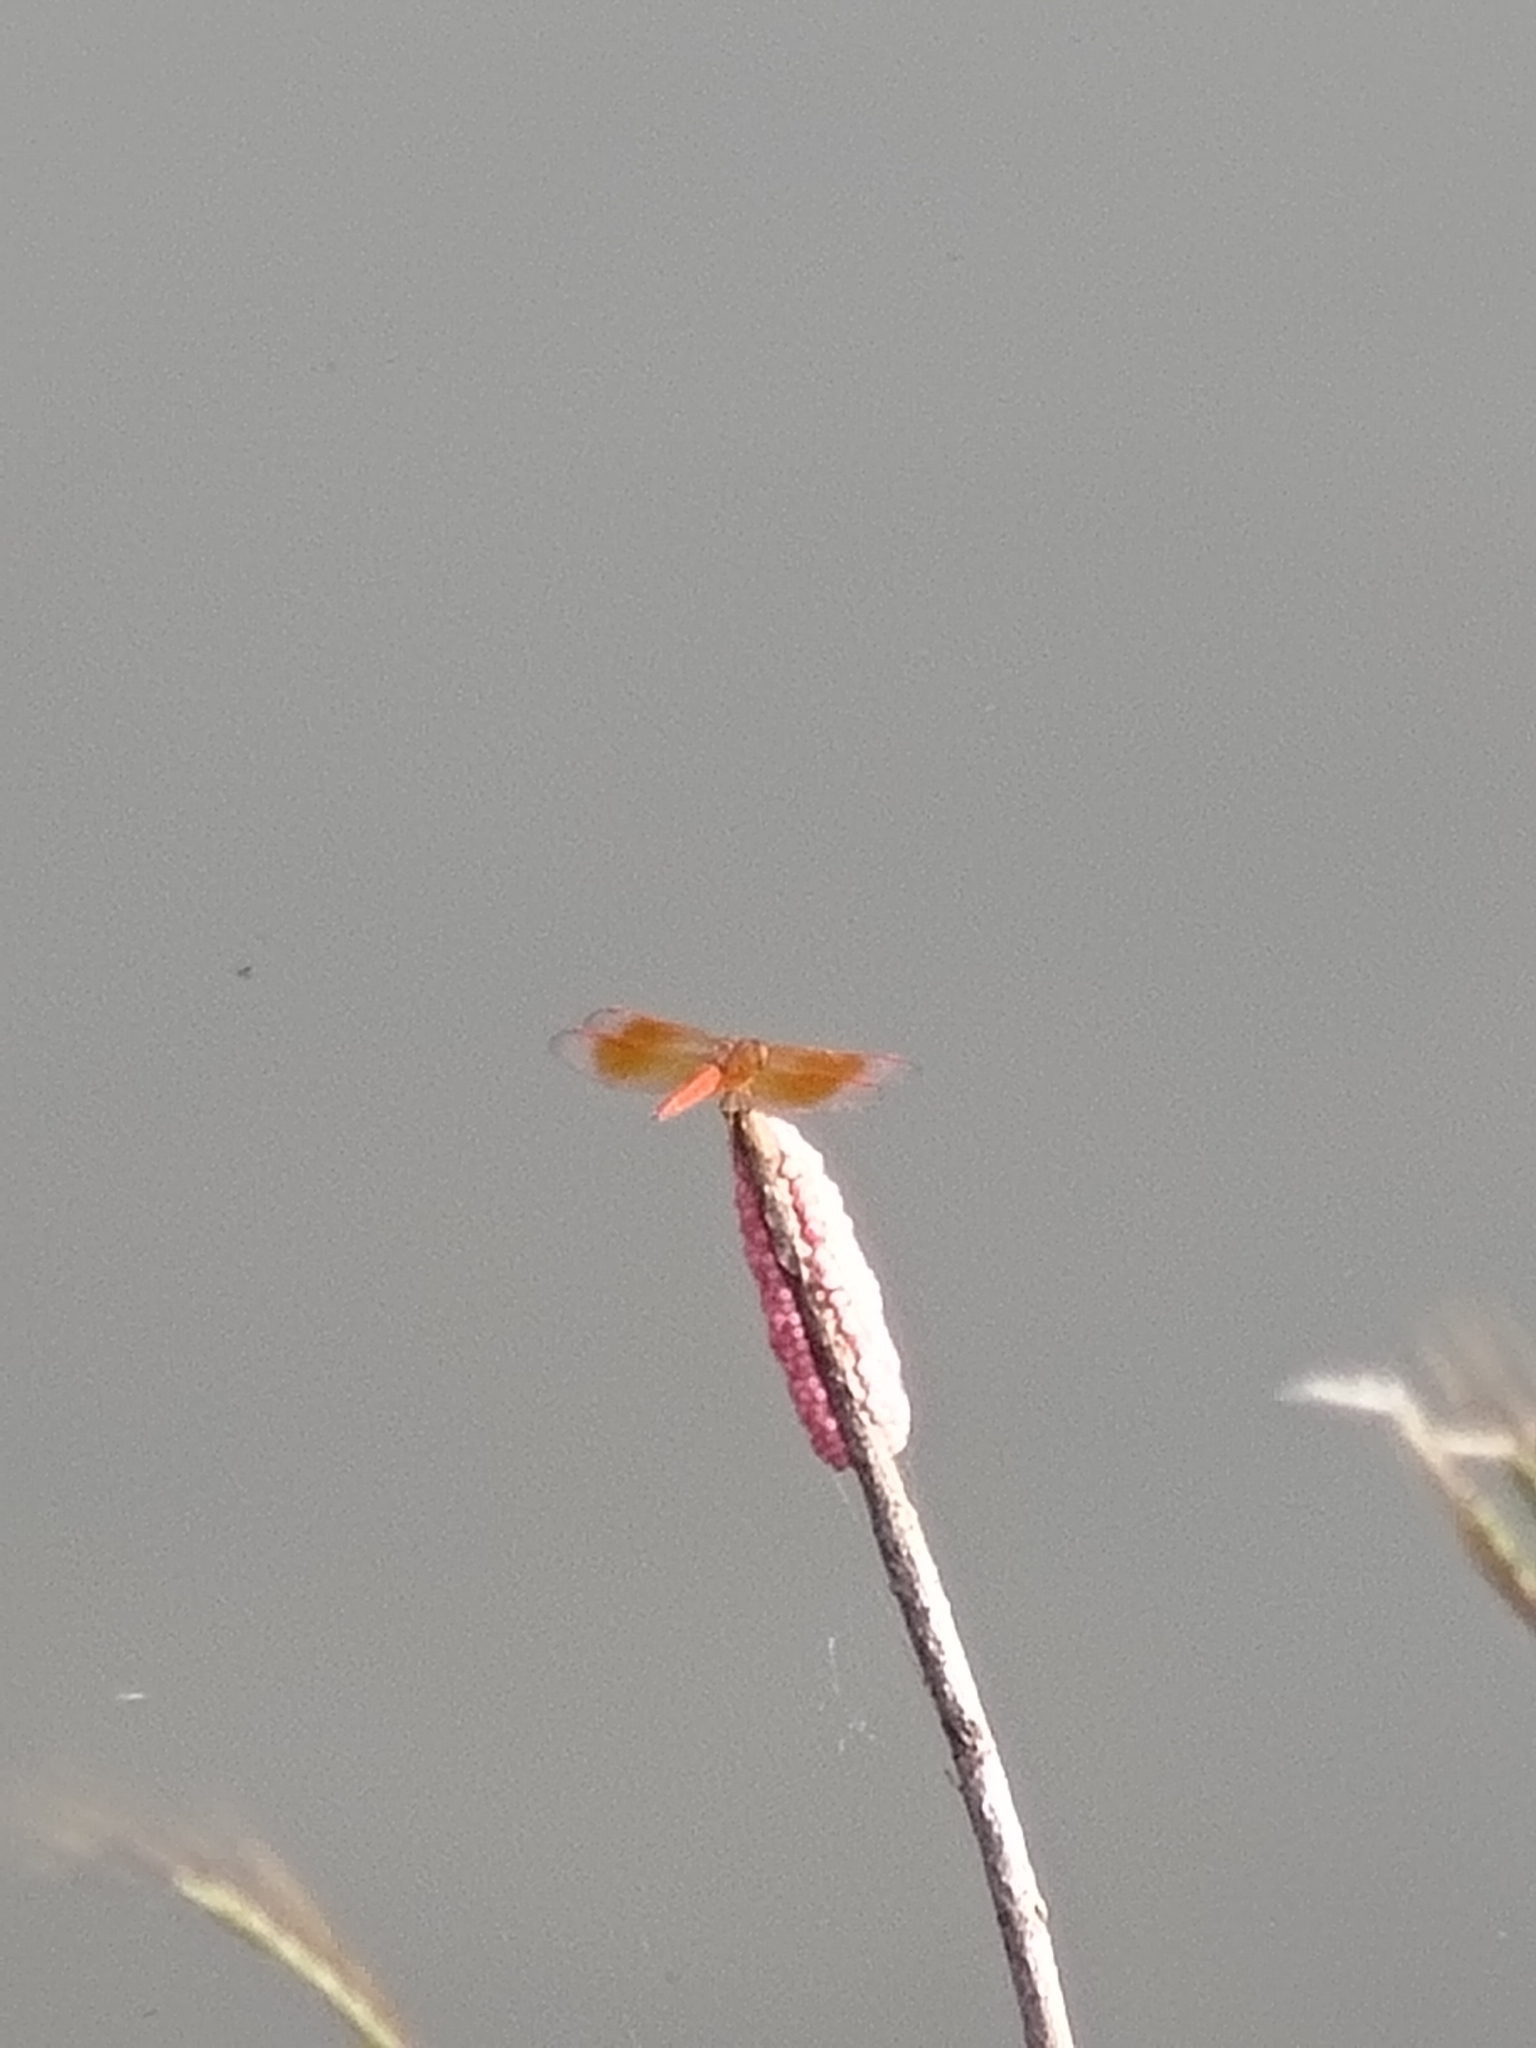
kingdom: Animalia
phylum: Arthropoda
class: Insecta
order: Odonata
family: Libellulidae
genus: Brachythemis
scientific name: Brachythemis contaminata
